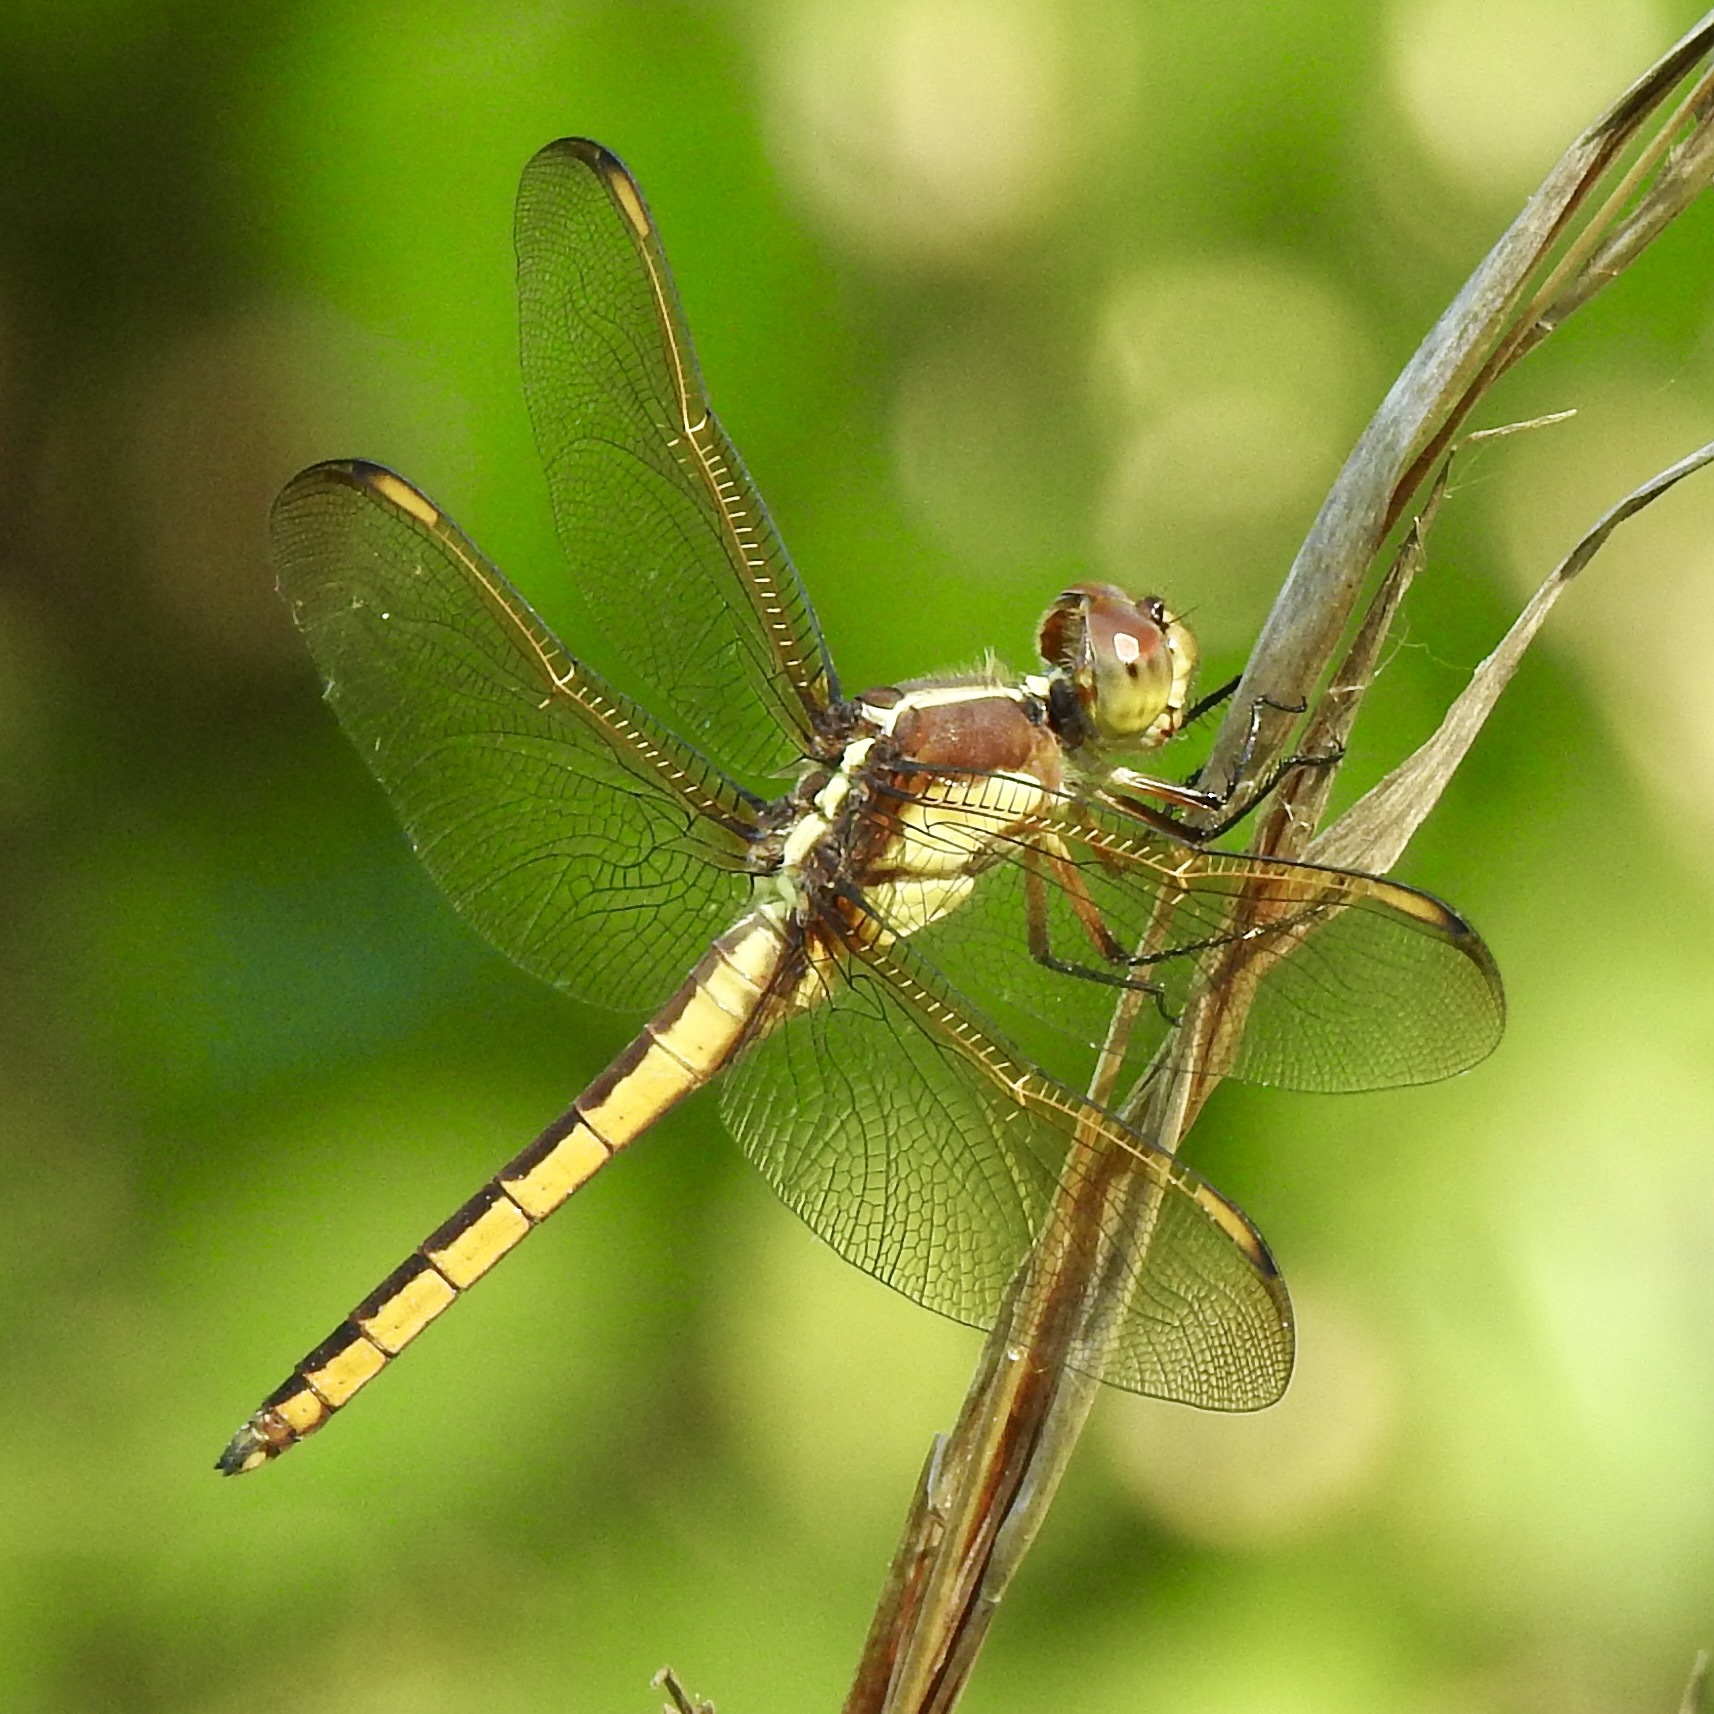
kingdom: Animalia
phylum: Arthropoda
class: Insecta
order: Odonata
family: Libellulidae
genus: Libellula
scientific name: Libellula flavida
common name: Yellow-sided skimmer
